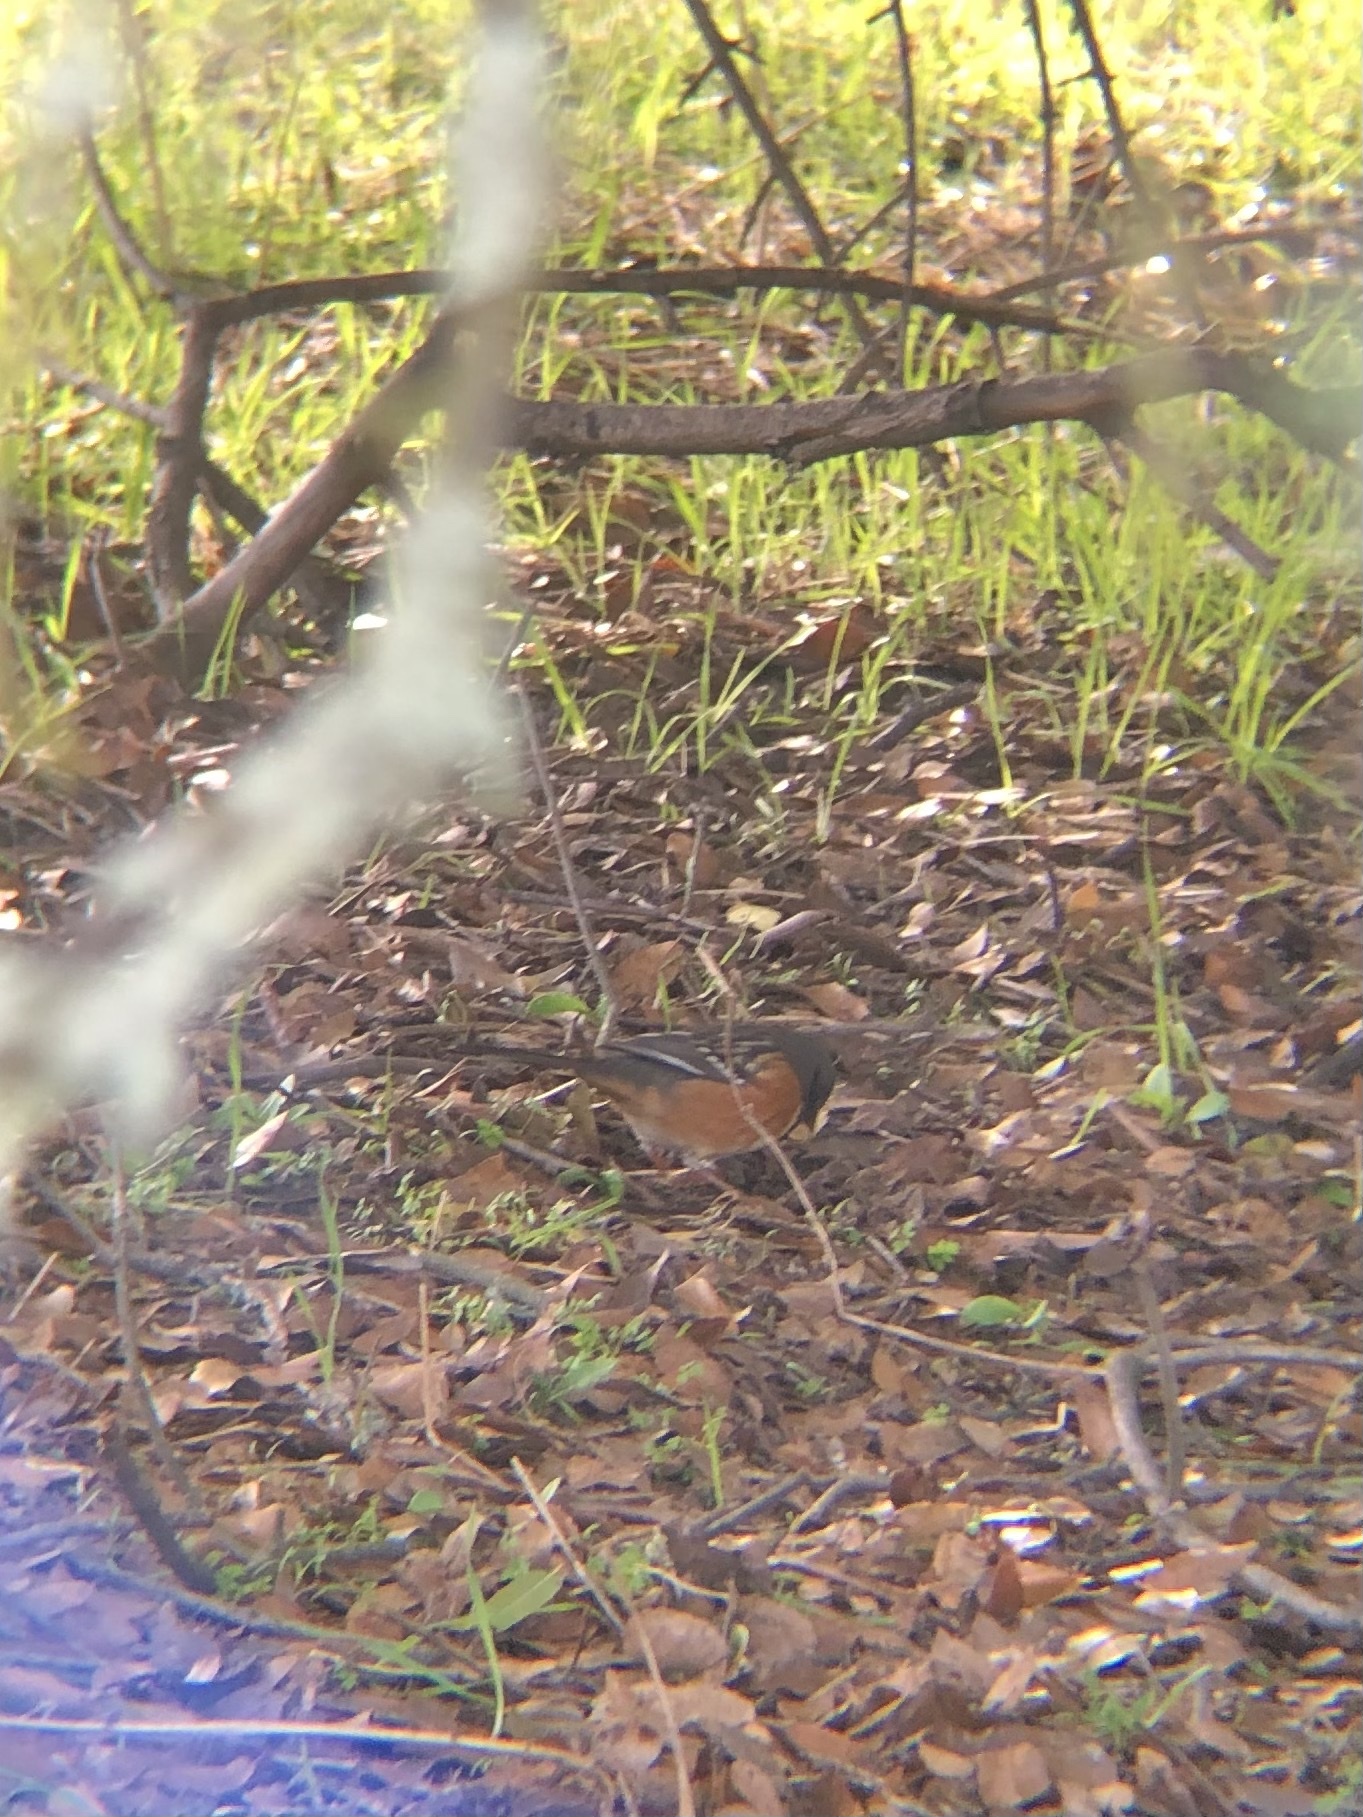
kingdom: Animalia
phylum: Chordata
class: Aves
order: Passeriformes
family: Passerellidae
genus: Pipilo
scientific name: Pipilo maculatus
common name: Spotted towhee
